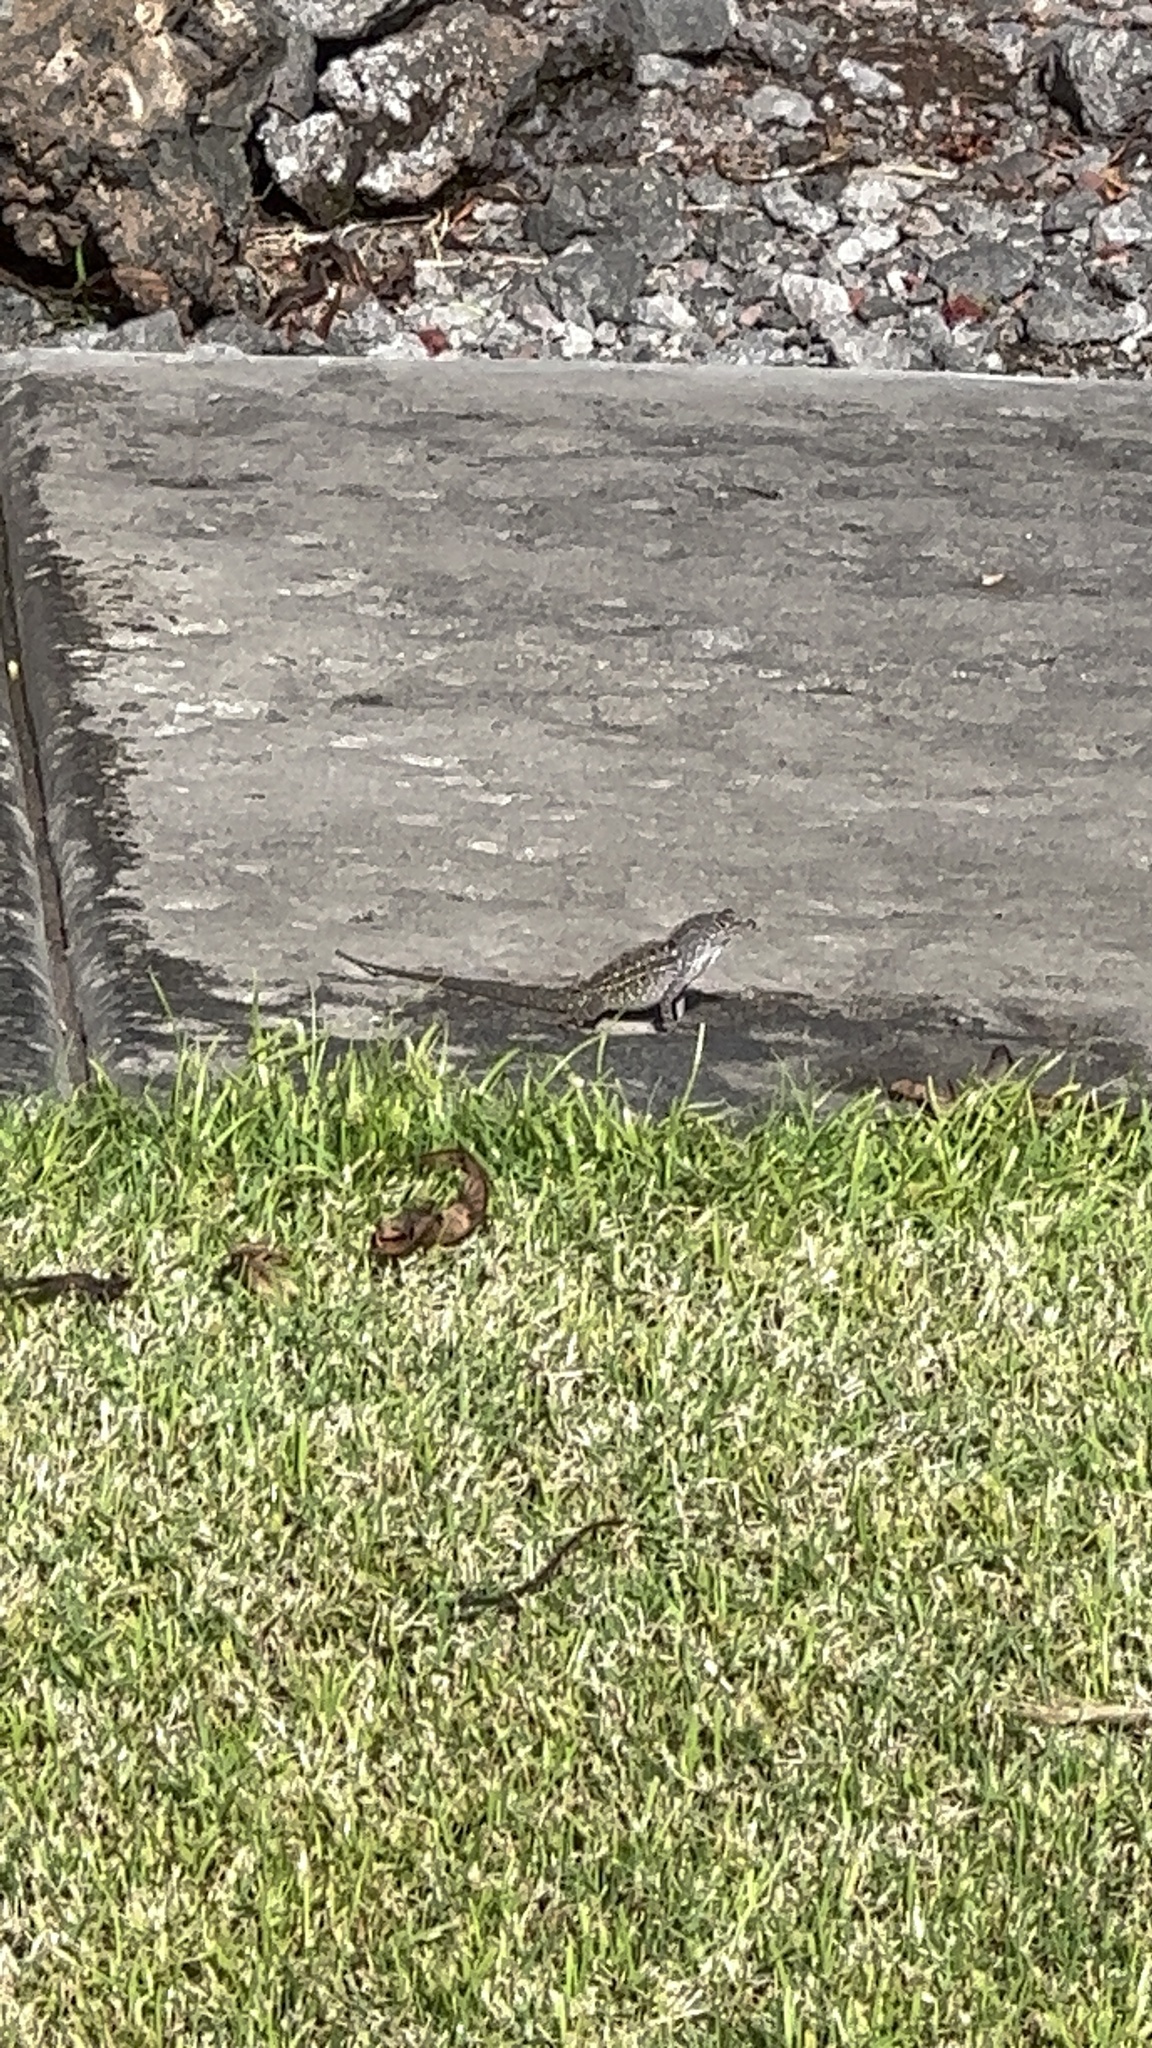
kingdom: Animalia
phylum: Chordata
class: Squamata
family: Dactyloidae
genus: Anolis
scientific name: Anolis sagrei
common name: Brown anole
